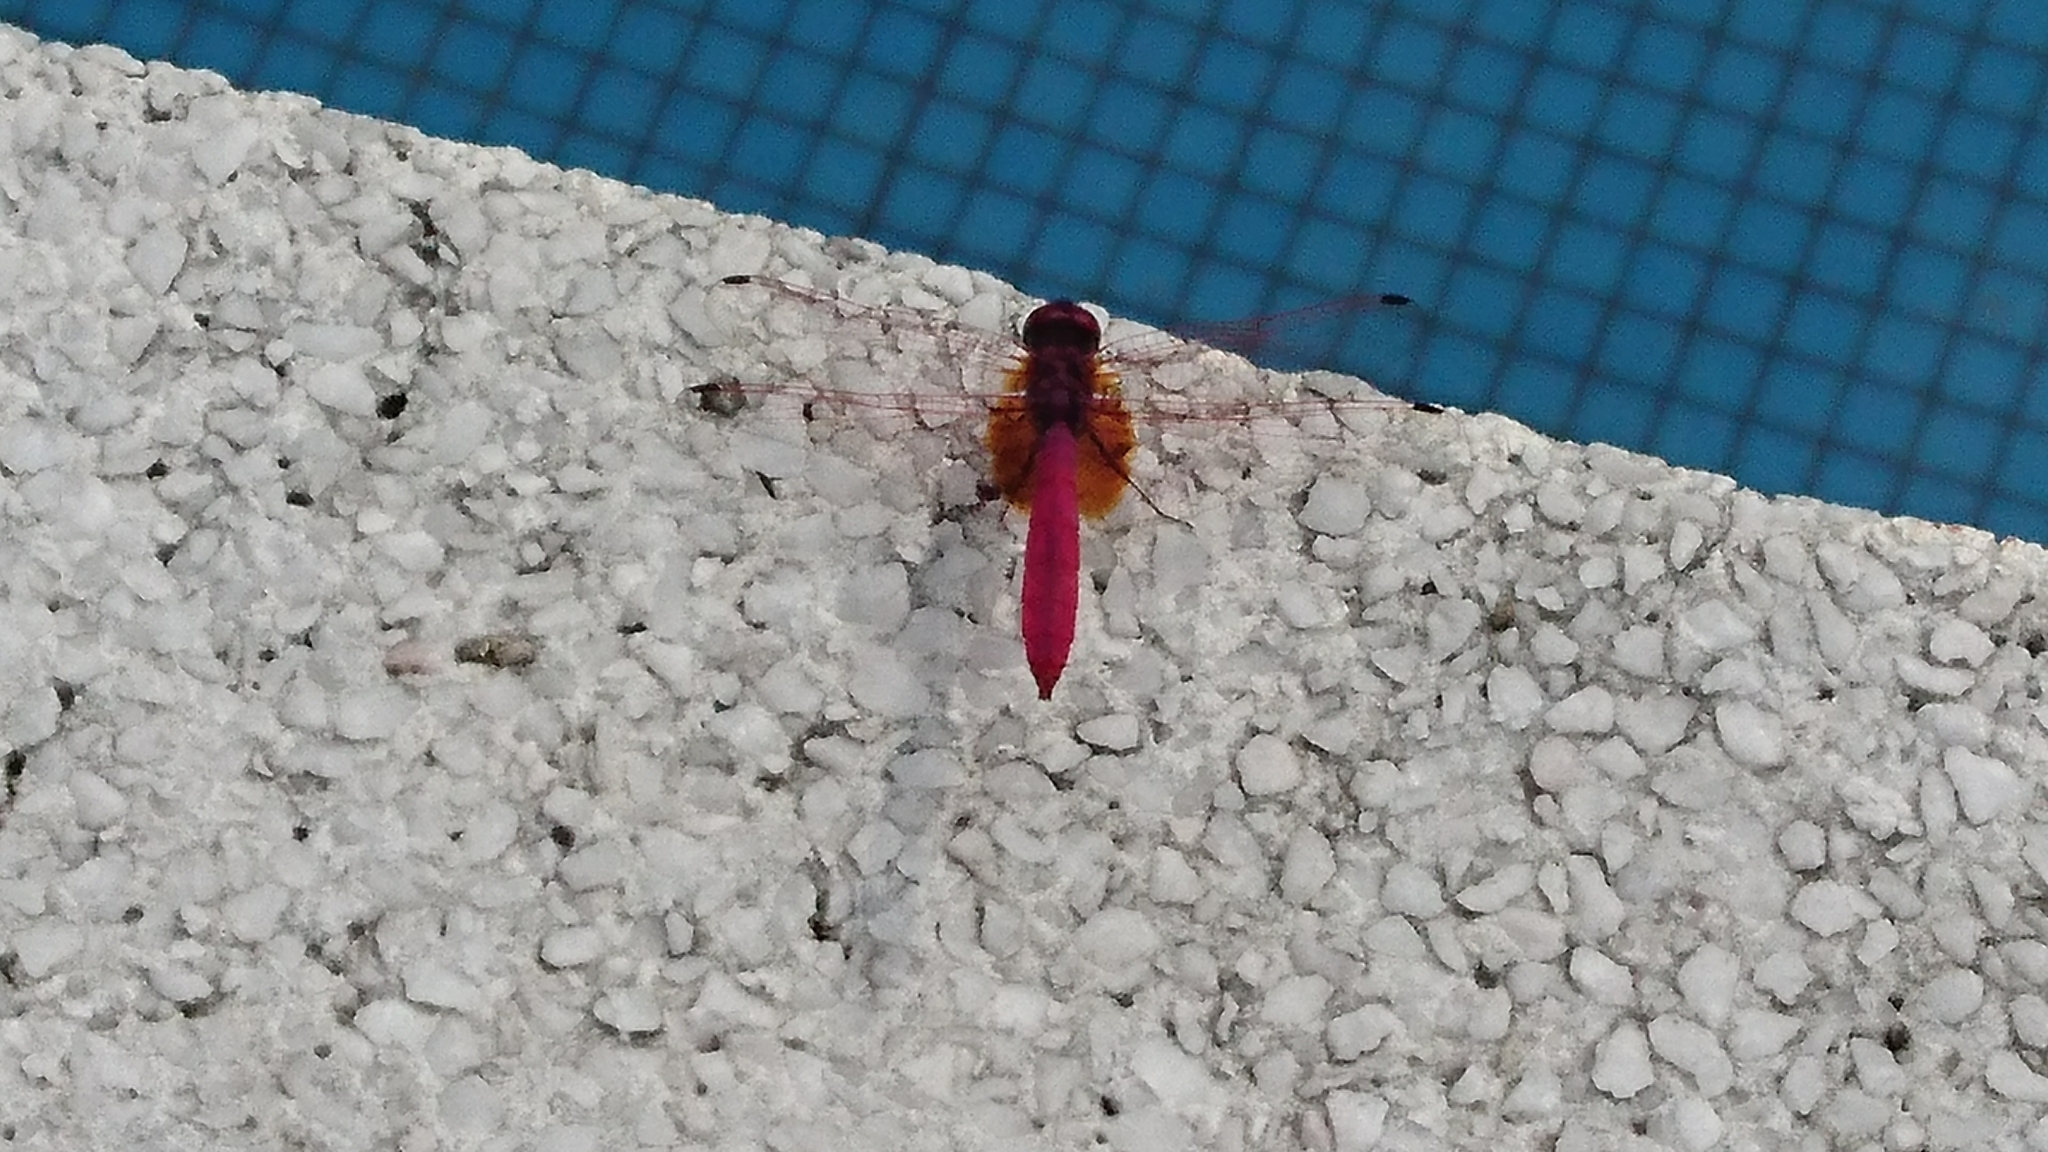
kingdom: Animalia
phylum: Arthropoda
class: Insecta
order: Odonata
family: Libellulidae
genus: Trithemis
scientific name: Trithemis aurora
